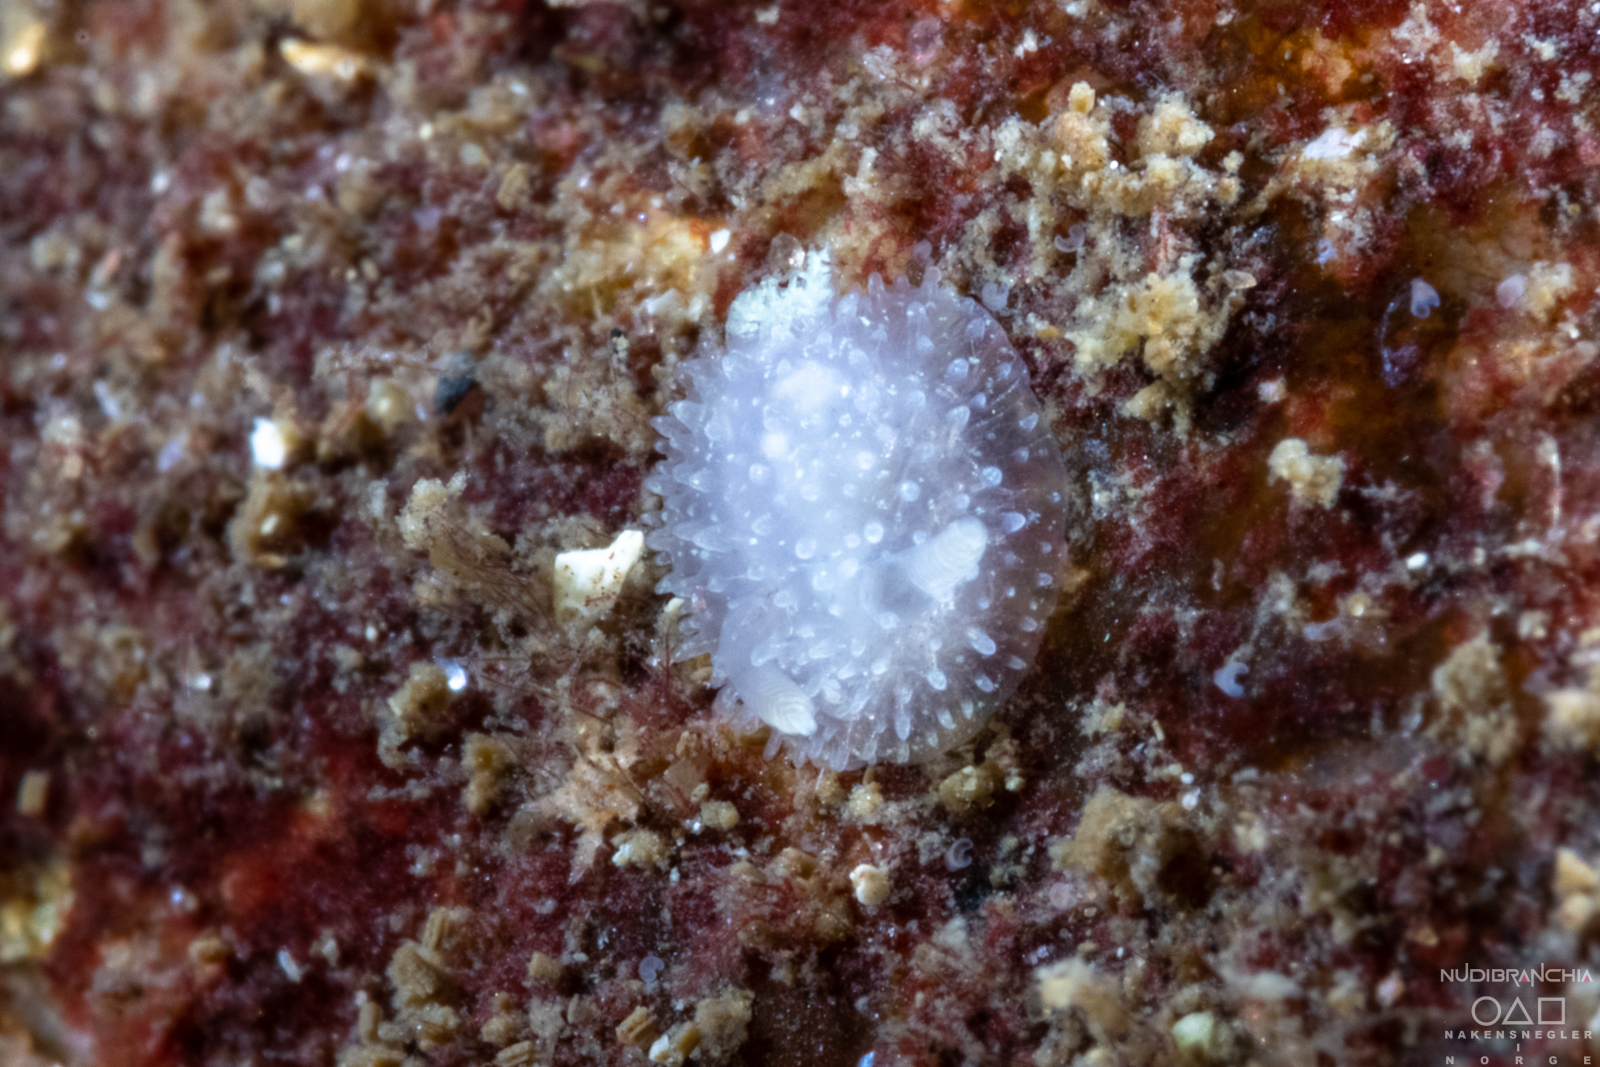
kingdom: Animalia
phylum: Mollusca
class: Gastropoda
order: Nudibranchia
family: Onchidorididae
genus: Acanthodoris
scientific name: Acanthodoris pilosa
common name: Hairy spiny doris
